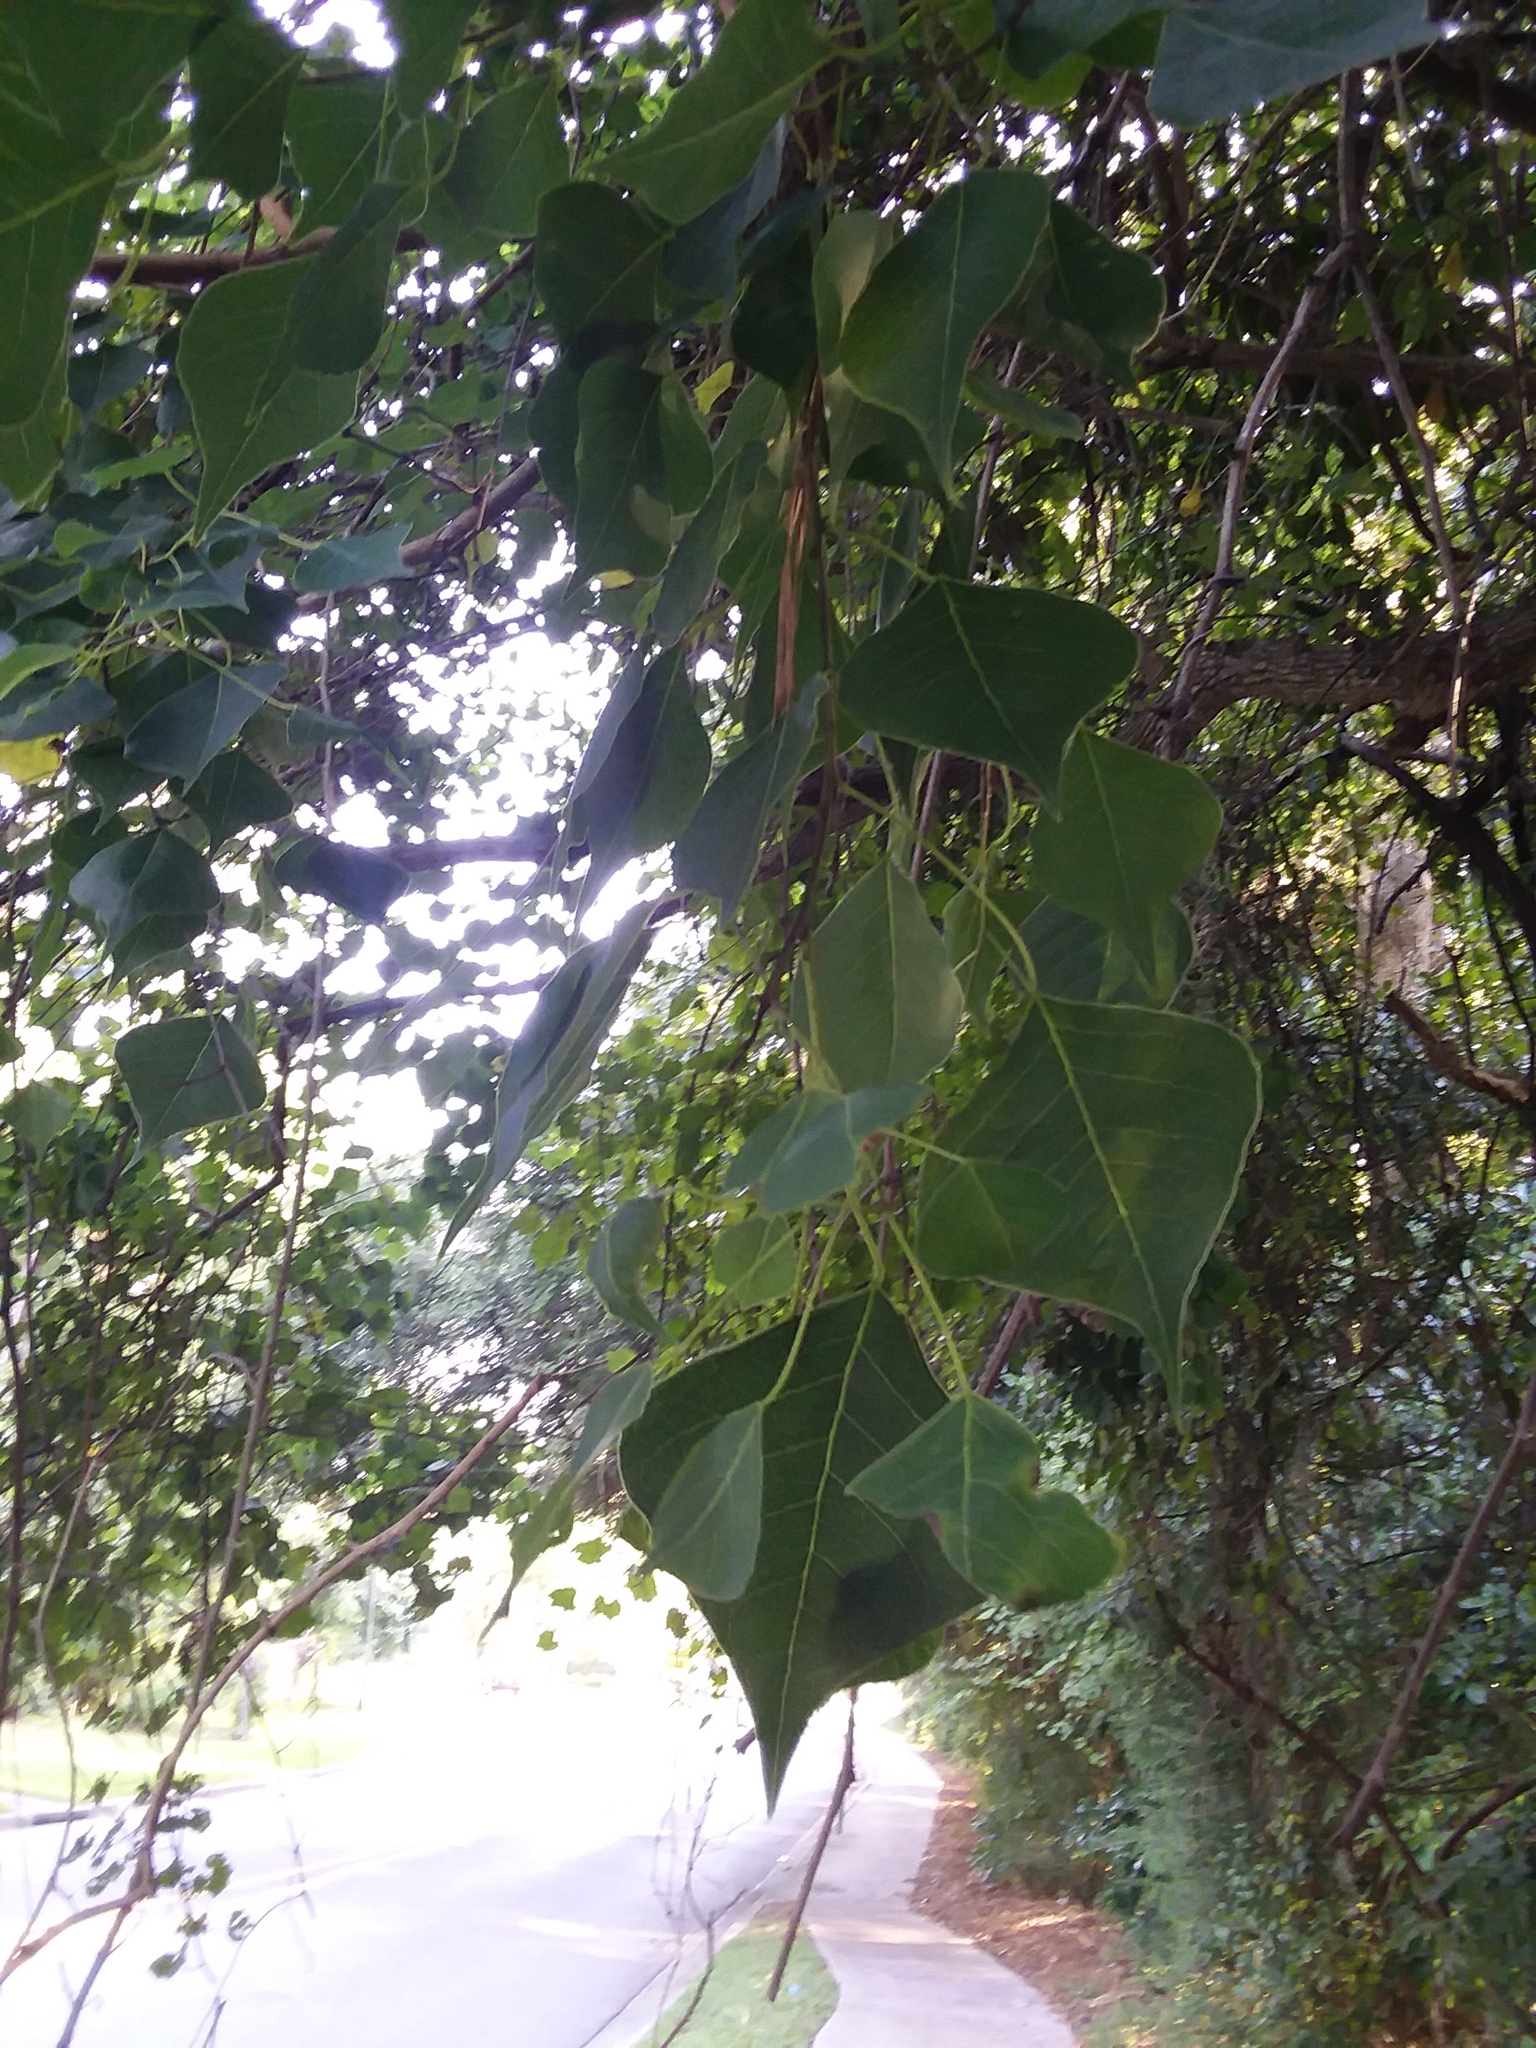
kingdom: Plantae
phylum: Tracheophyta
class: Magnoliopsida
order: Malpighiales
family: Euphorbiaceae
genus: Triadica
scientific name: Triadica sebifera
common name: Chinese tallow
